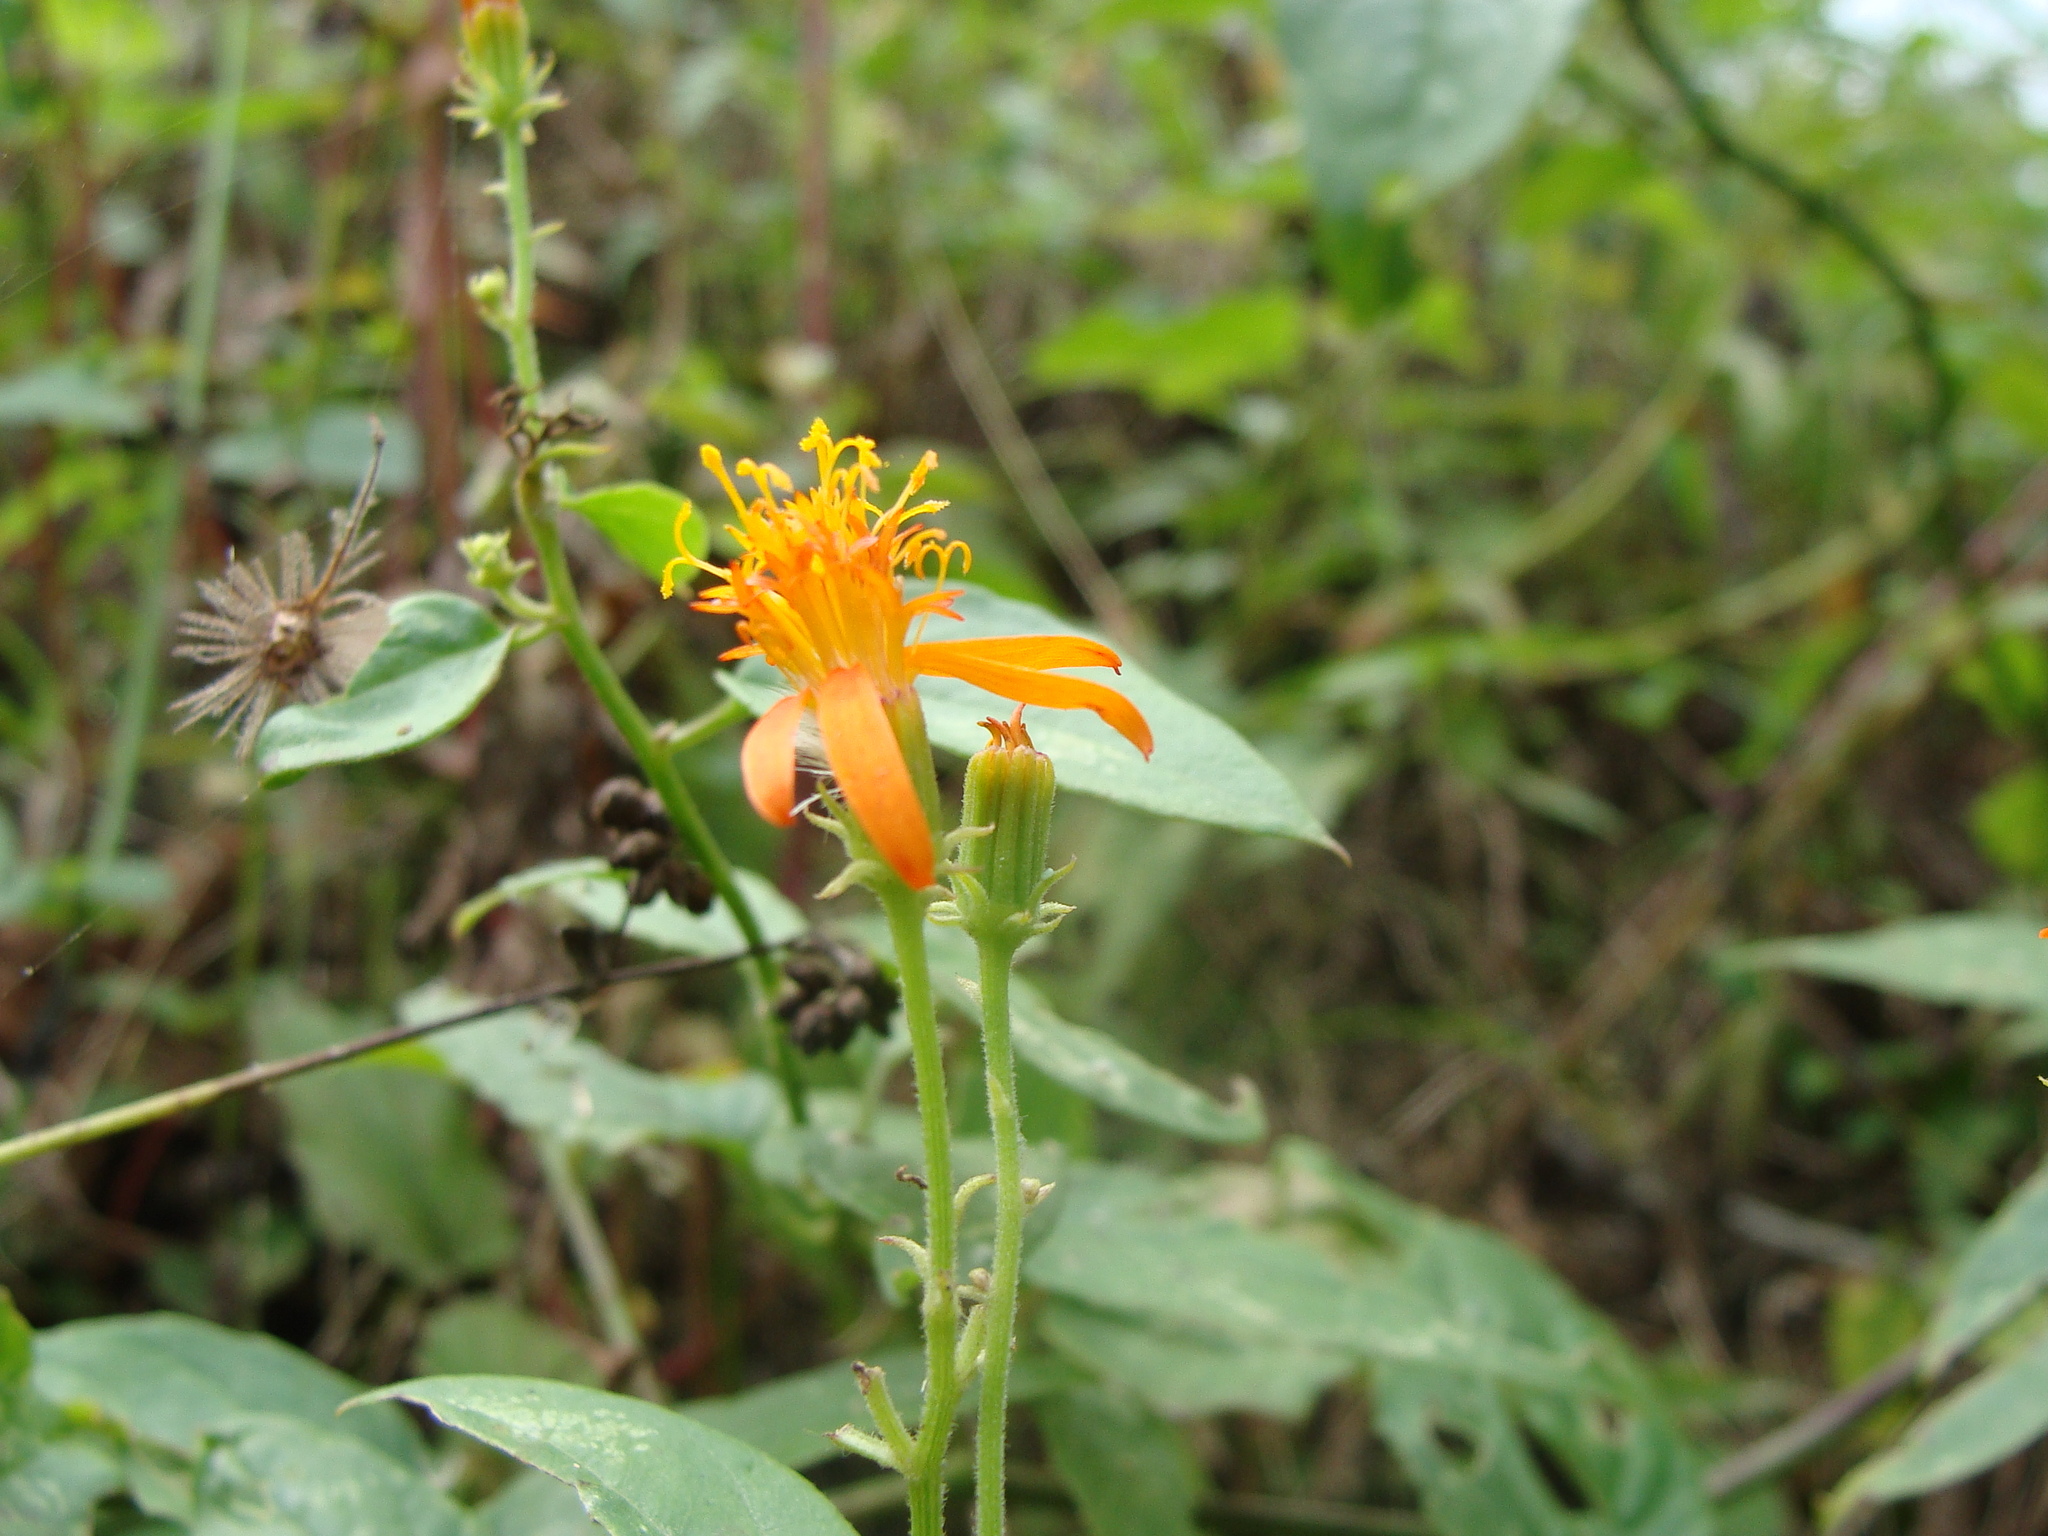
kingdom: Plantae
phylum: Tracheophyta
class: Magnoliopsida
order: Asterales
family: Asteraceae
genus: Pseudogynoxys
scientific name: Pseudogynoxys haenkei
